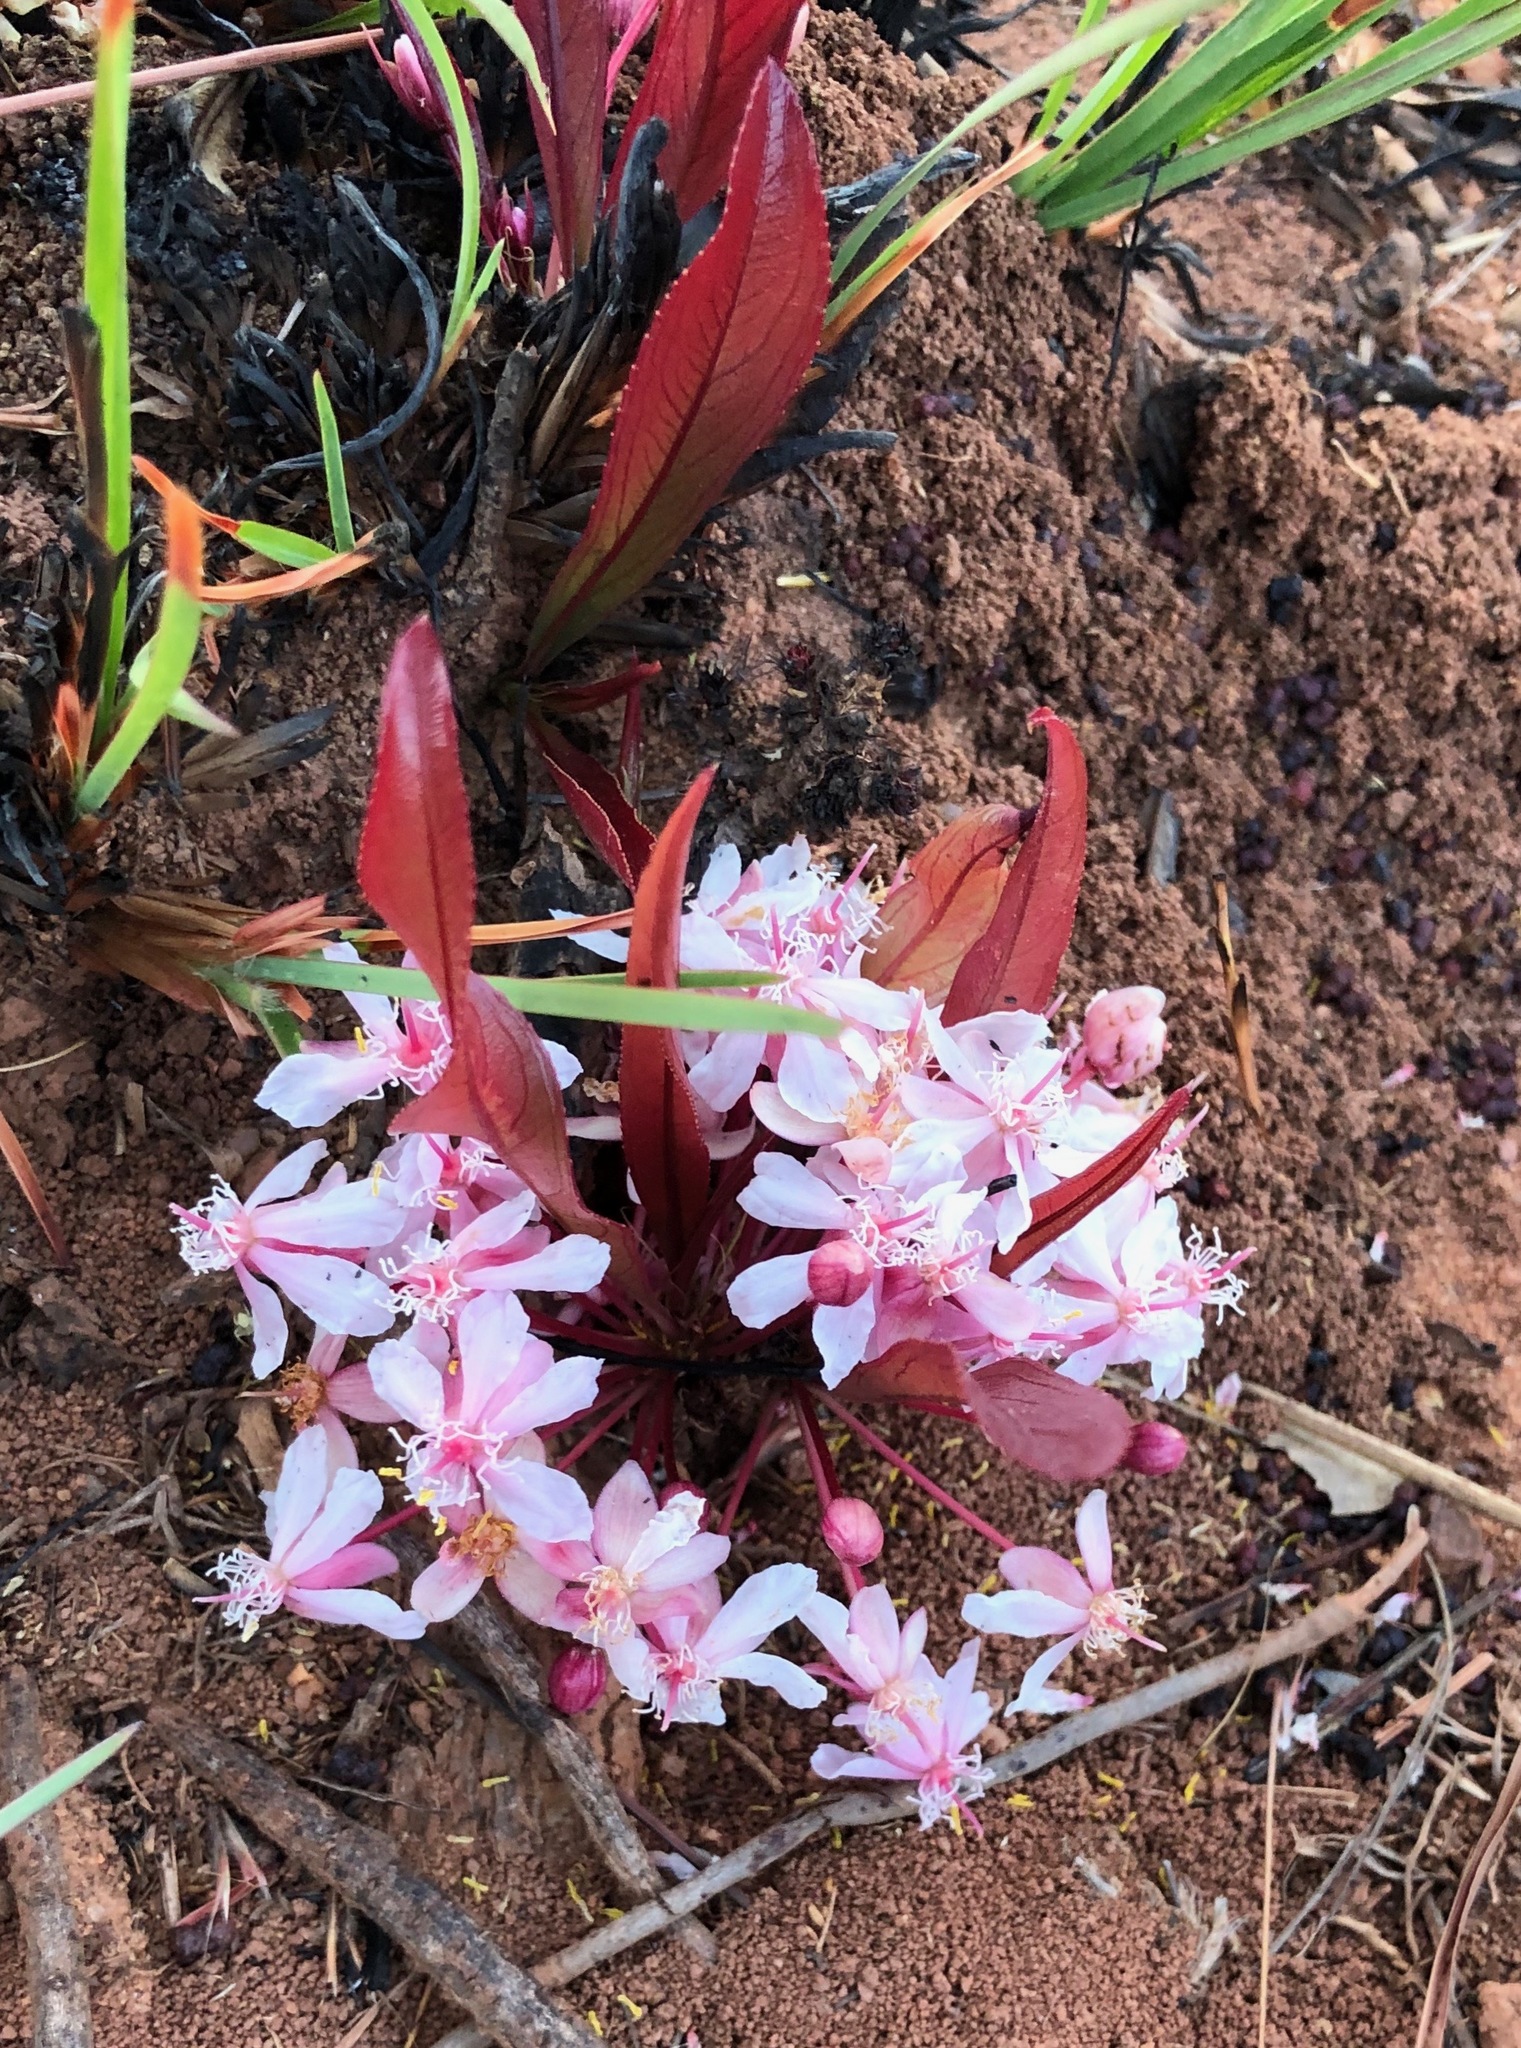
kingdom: Plantae
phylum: Tracheophyta
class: Magnoliopsida
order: Malpighiales
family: Ochnaceae
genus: Ochna
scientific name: Ochna arenaria
